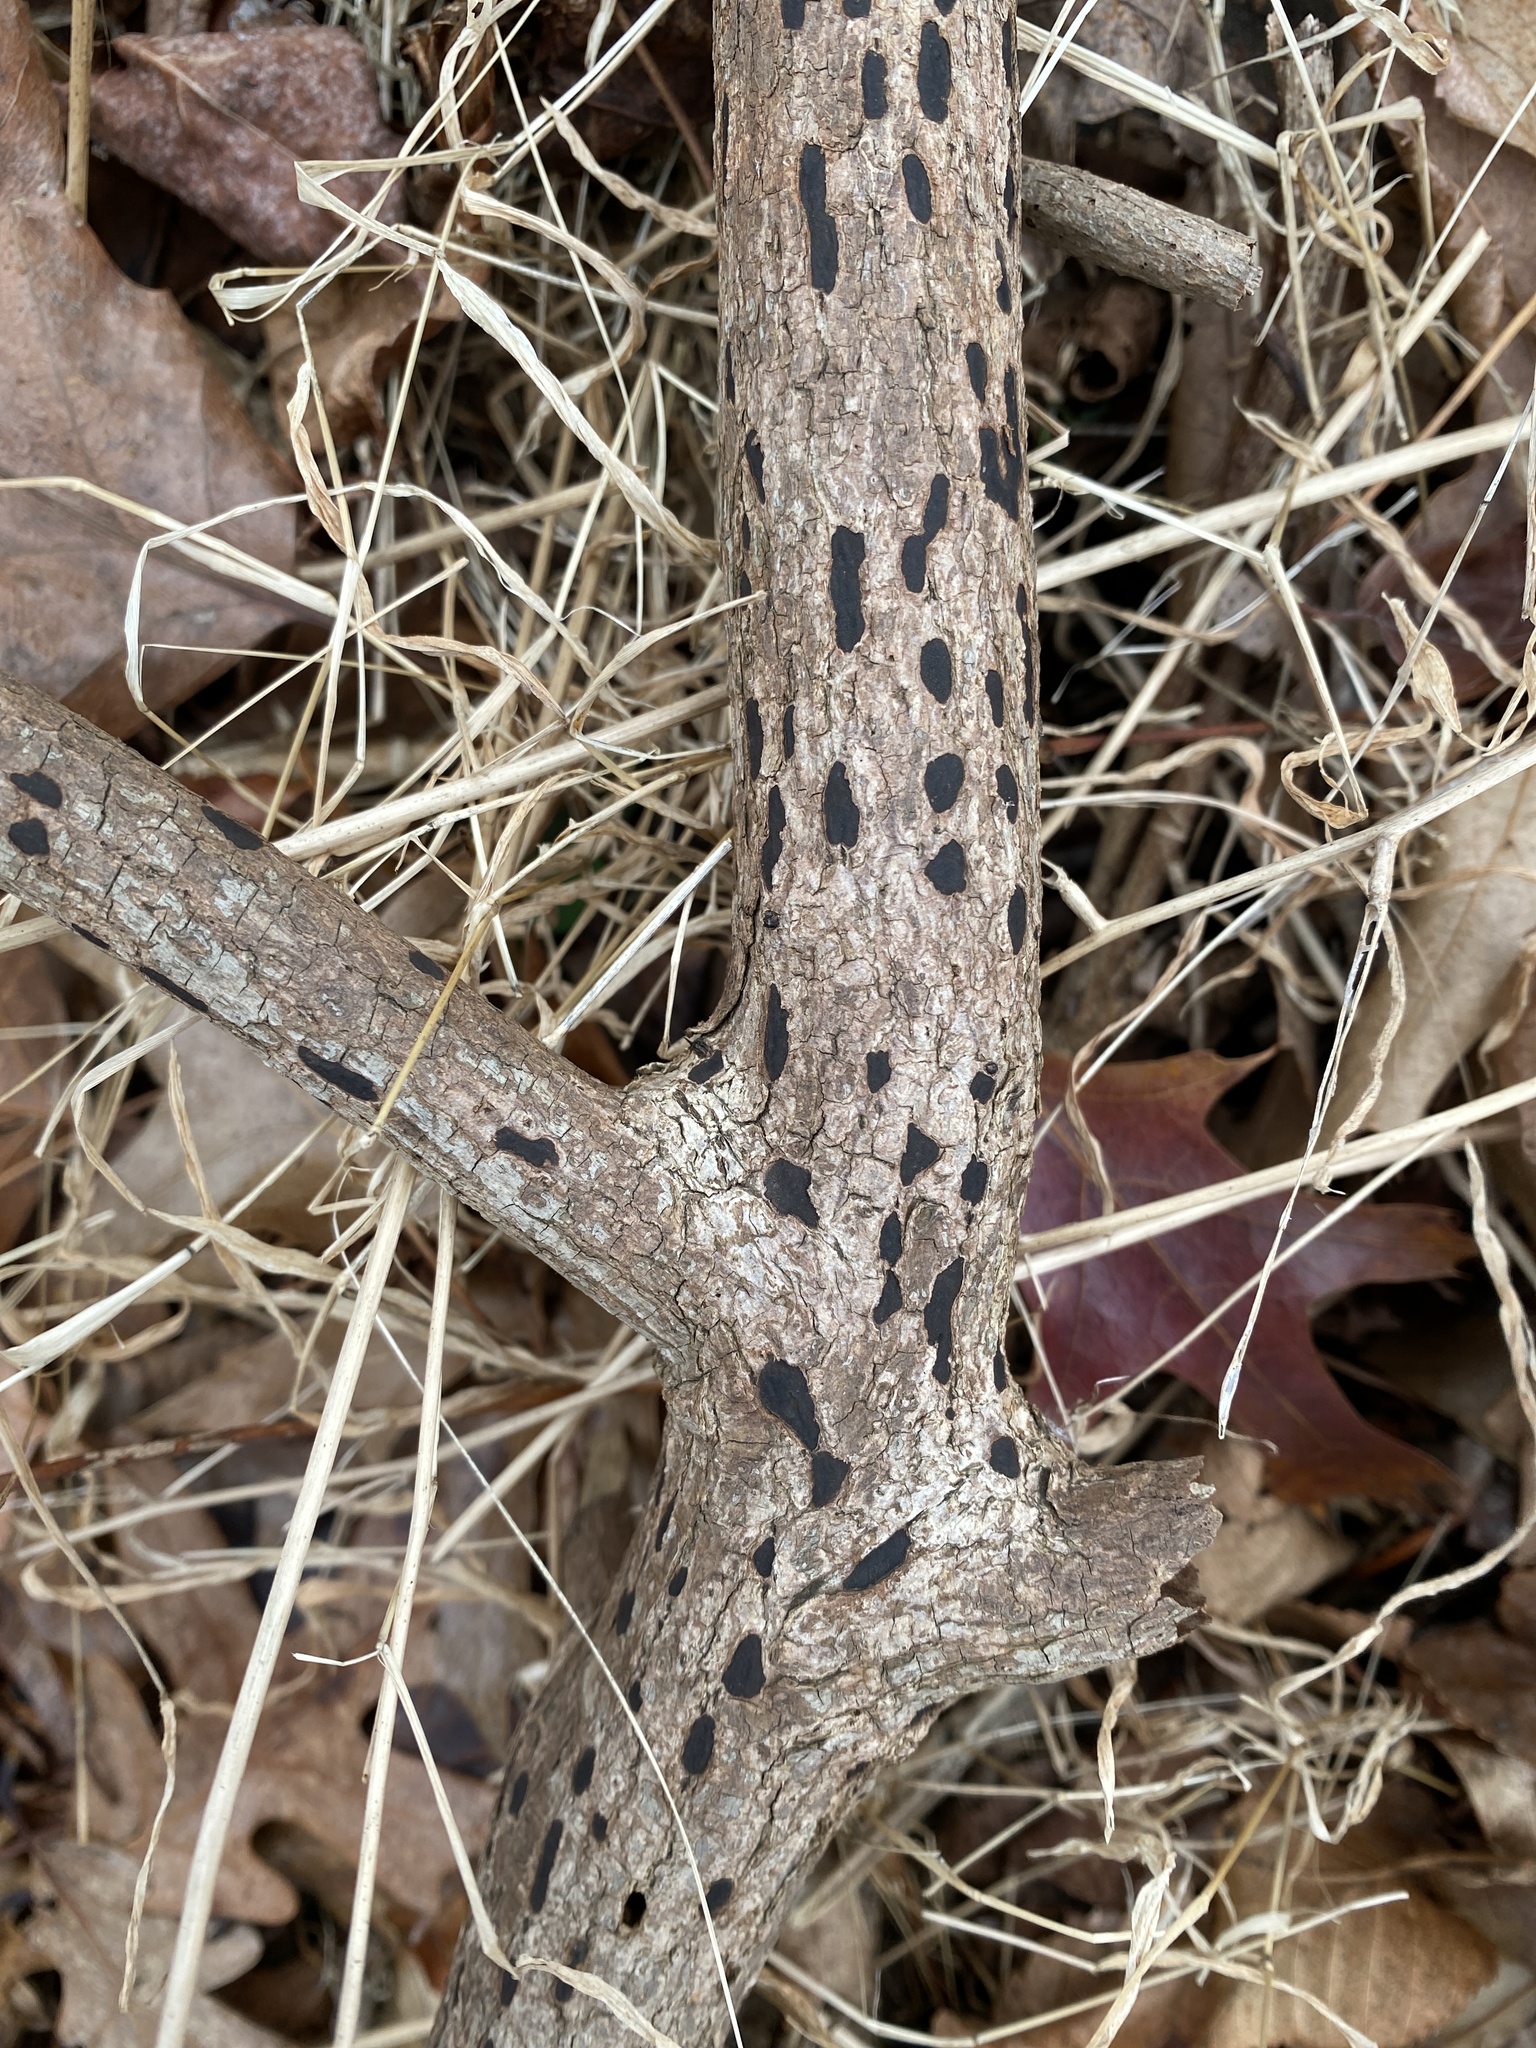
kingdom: Fungi
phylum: Ascomycota
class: Sordariomycetes
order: Xylariales
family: Xylariaceae
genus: Whalleya
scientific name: Whalleya microplaca
